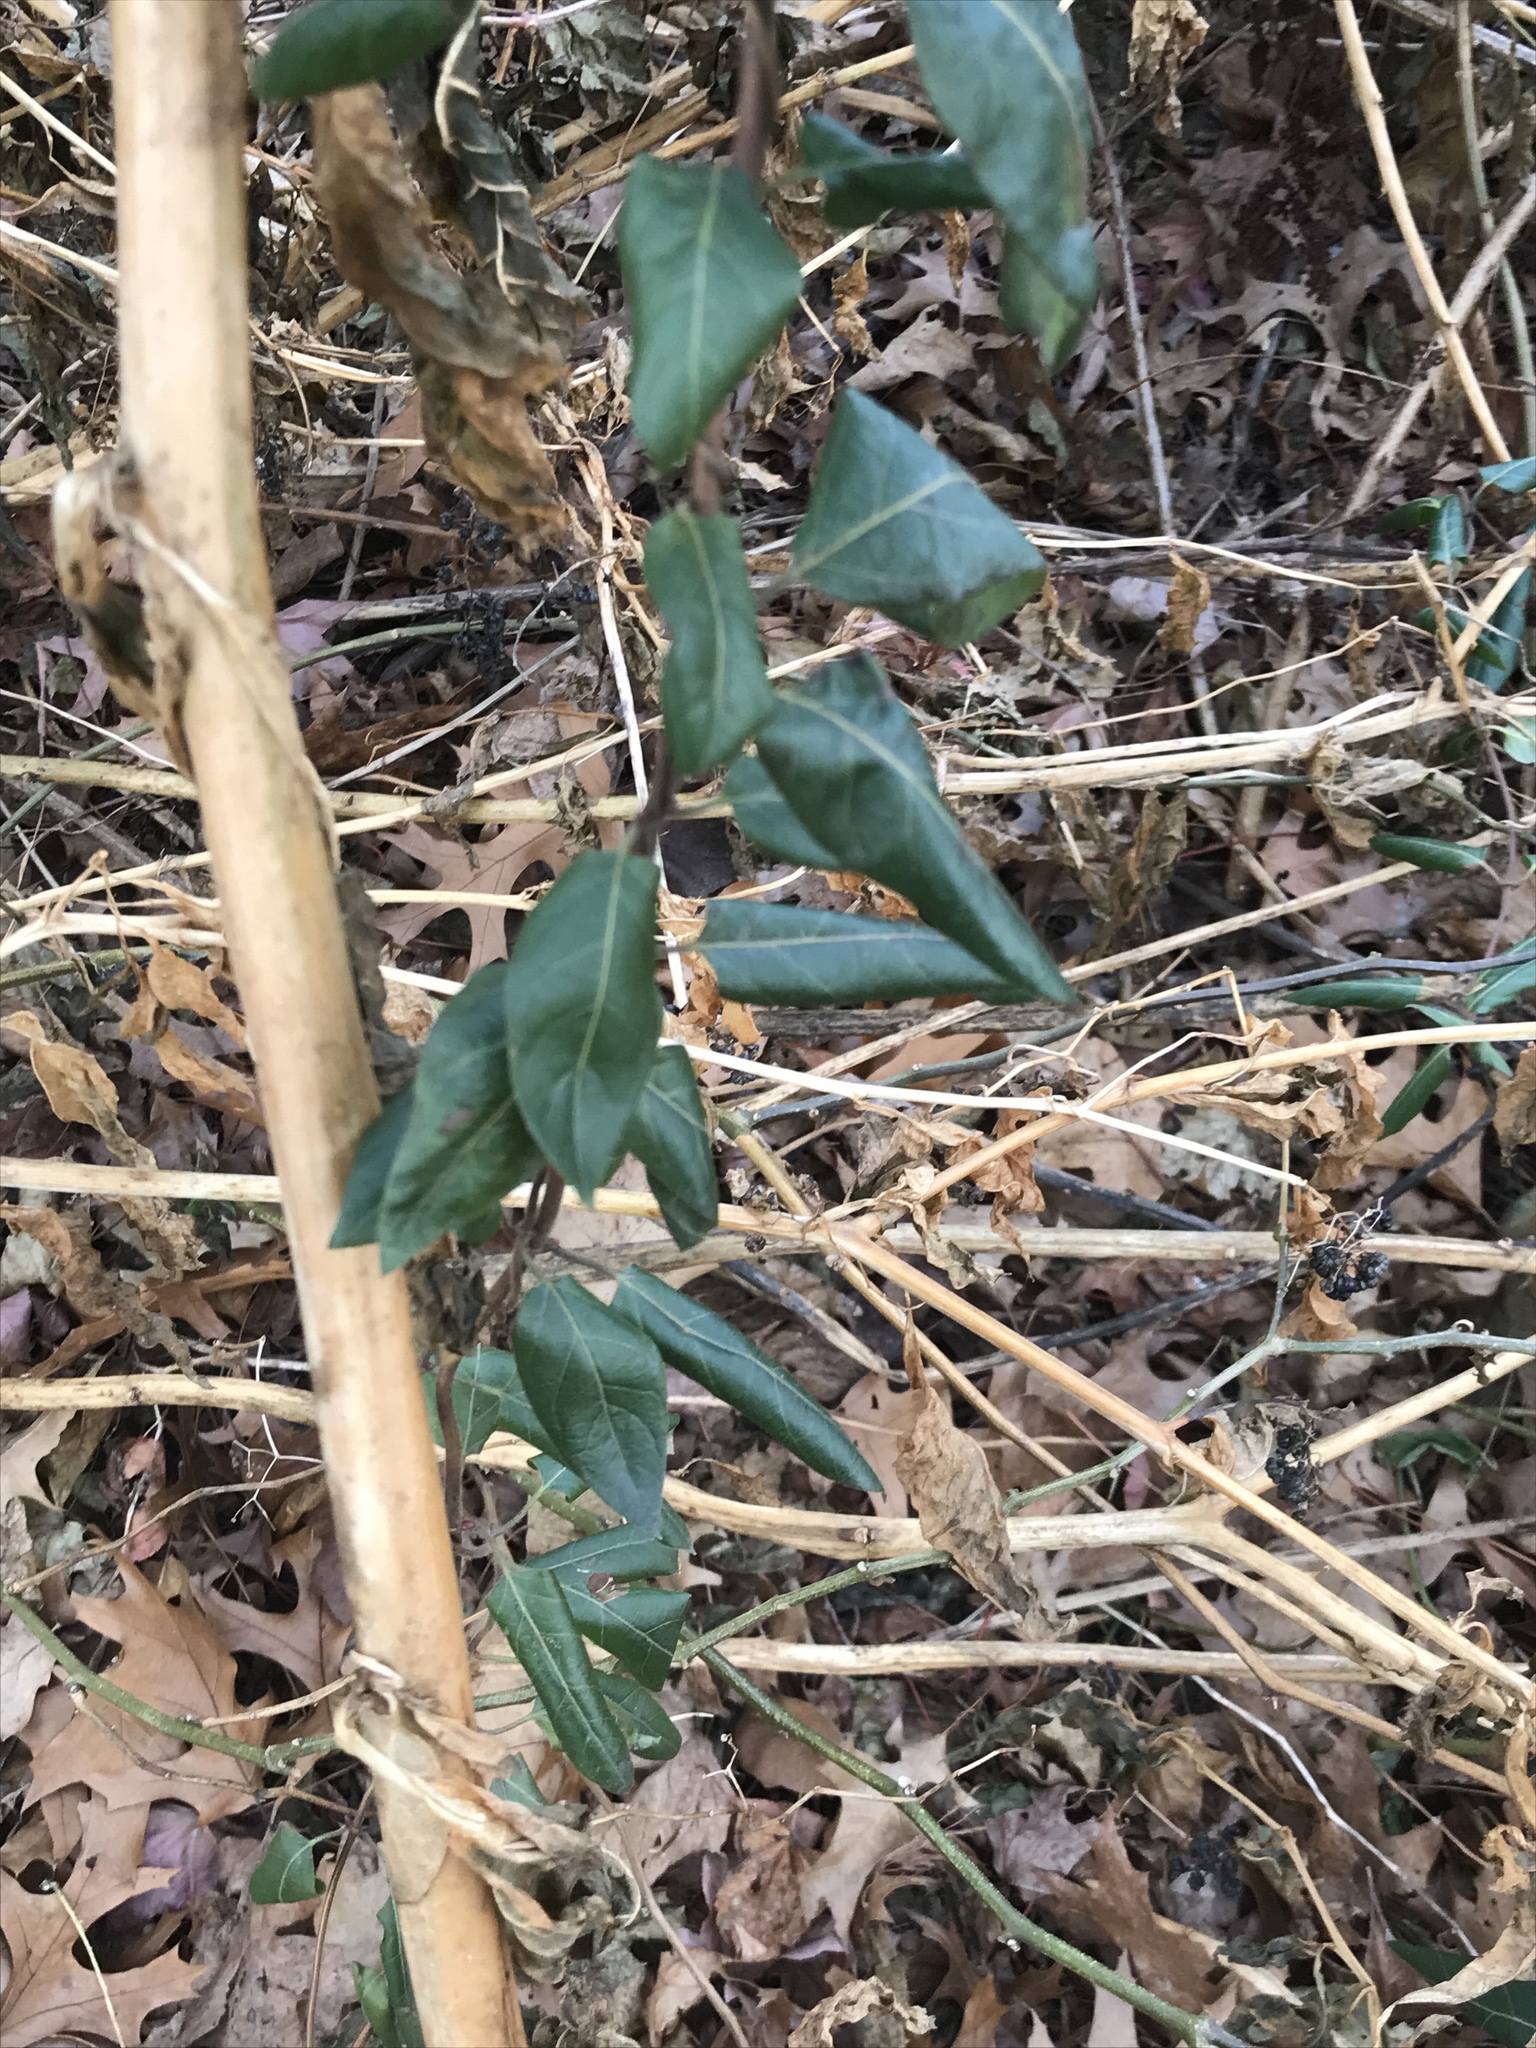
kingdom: Plantae
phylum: Tracheophyta
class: Magnoliopsida
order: Dipsacales
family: Caprifoliaceae
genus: Lonicera
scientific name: Lonicera japonica
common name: Japanese honeysuckle
